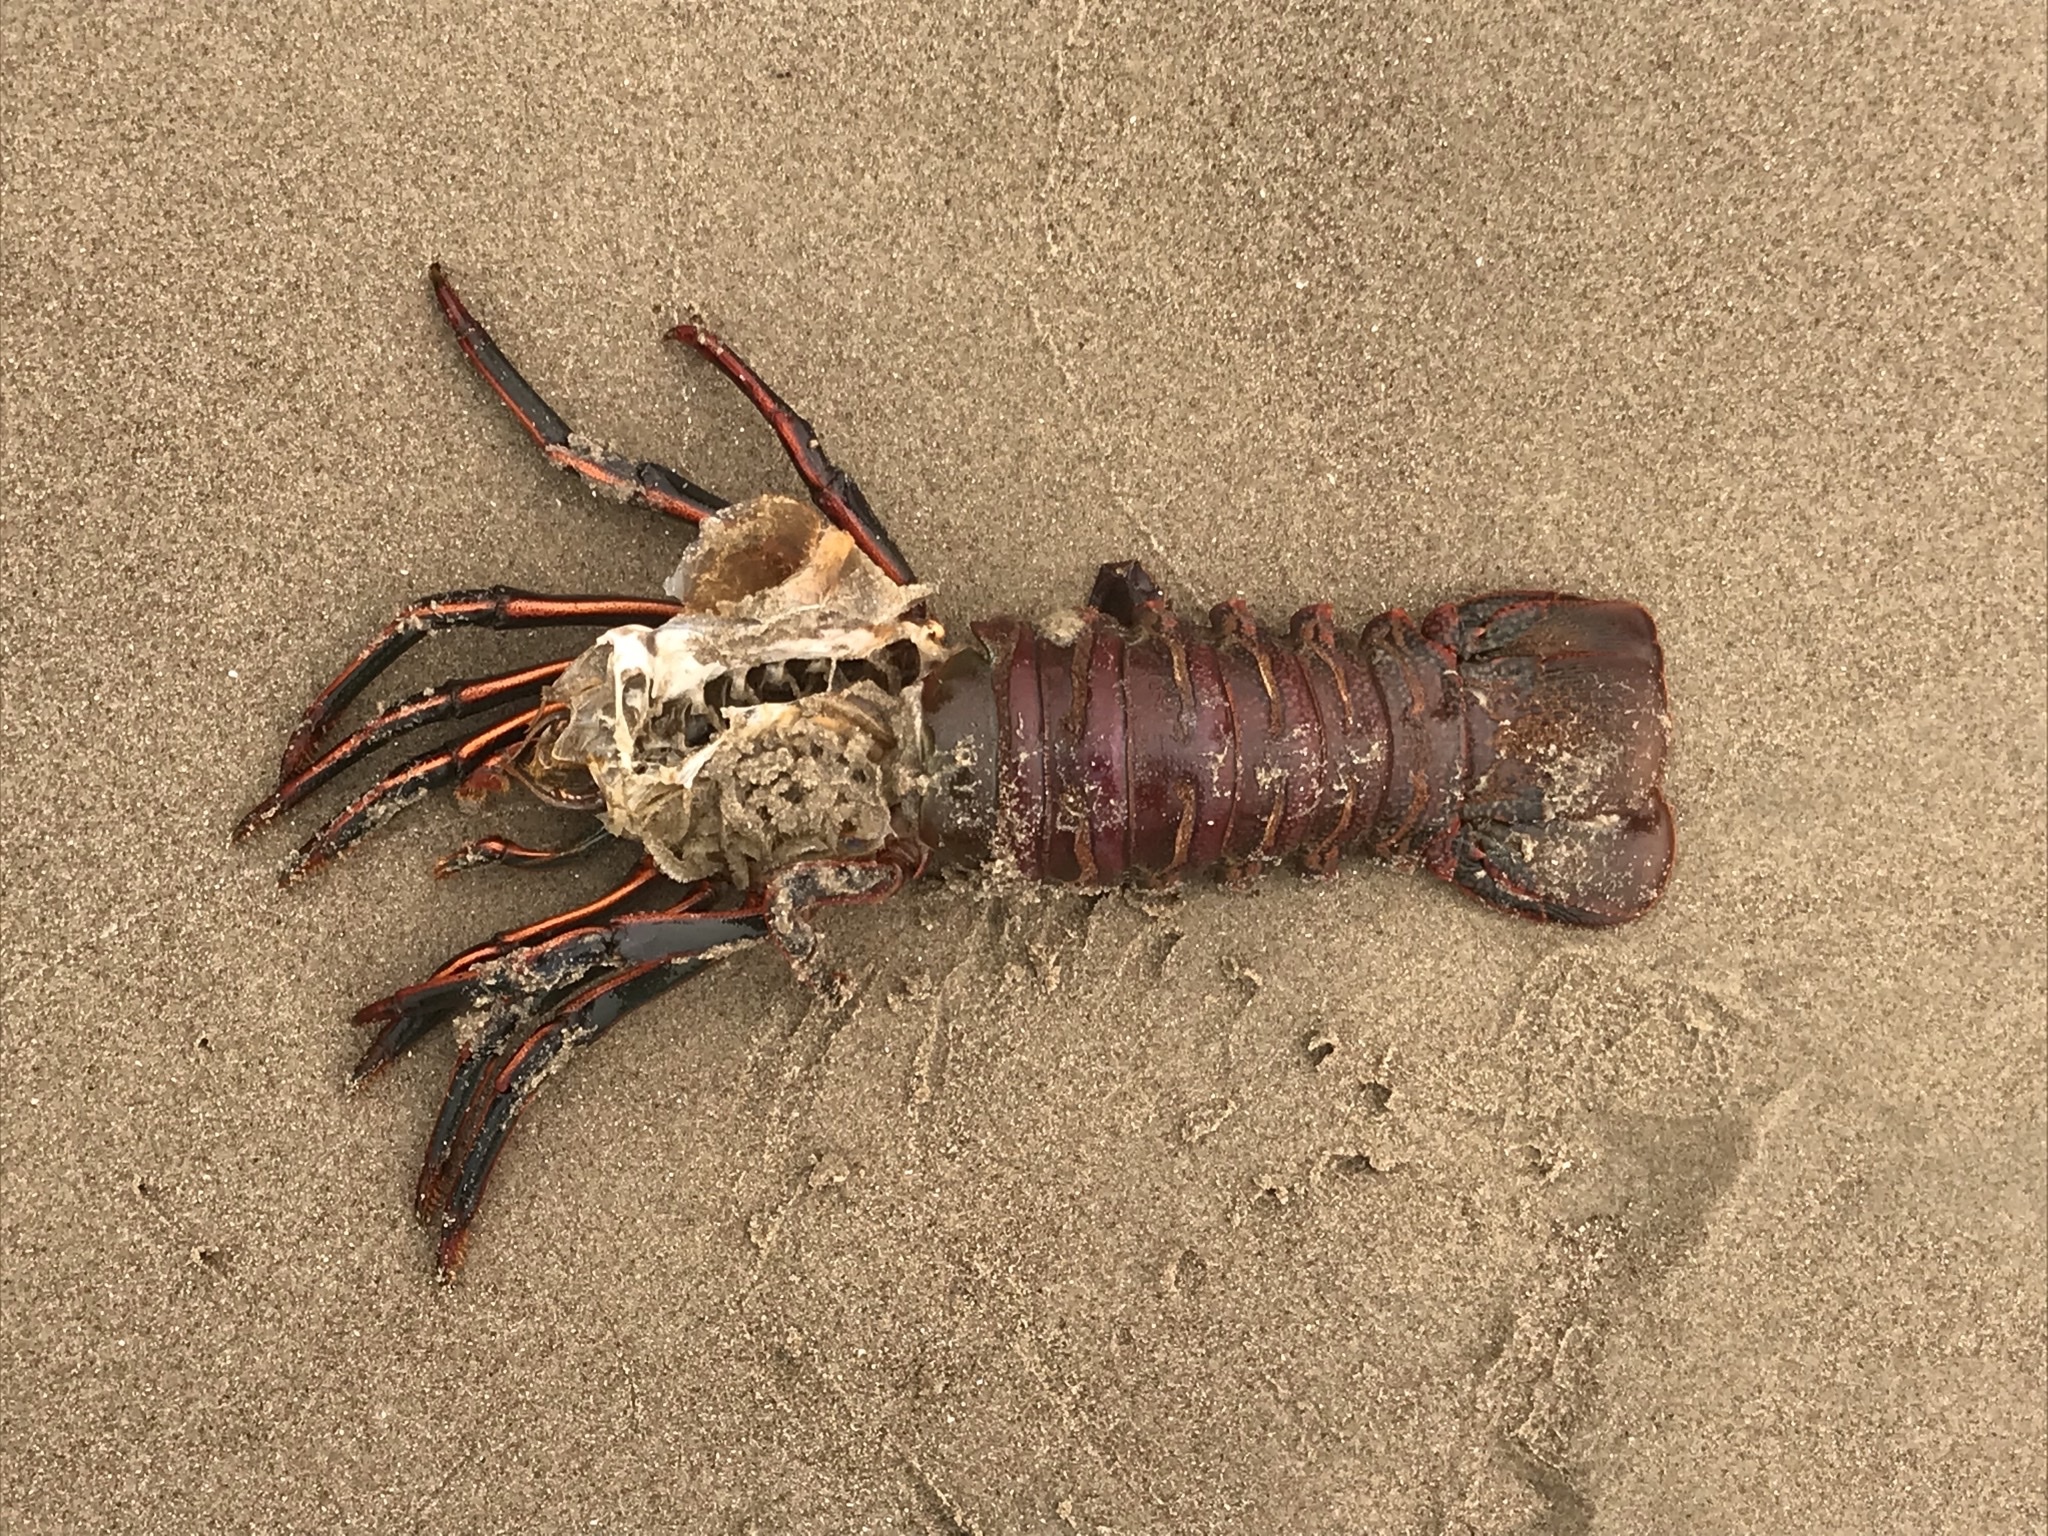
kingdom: Animalia
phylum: Arthropoda
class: Malacostraca
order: Decapoda
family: Palinuridae
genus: Panulirus
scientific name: Panulirus interruptus
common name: California spiny lobster
